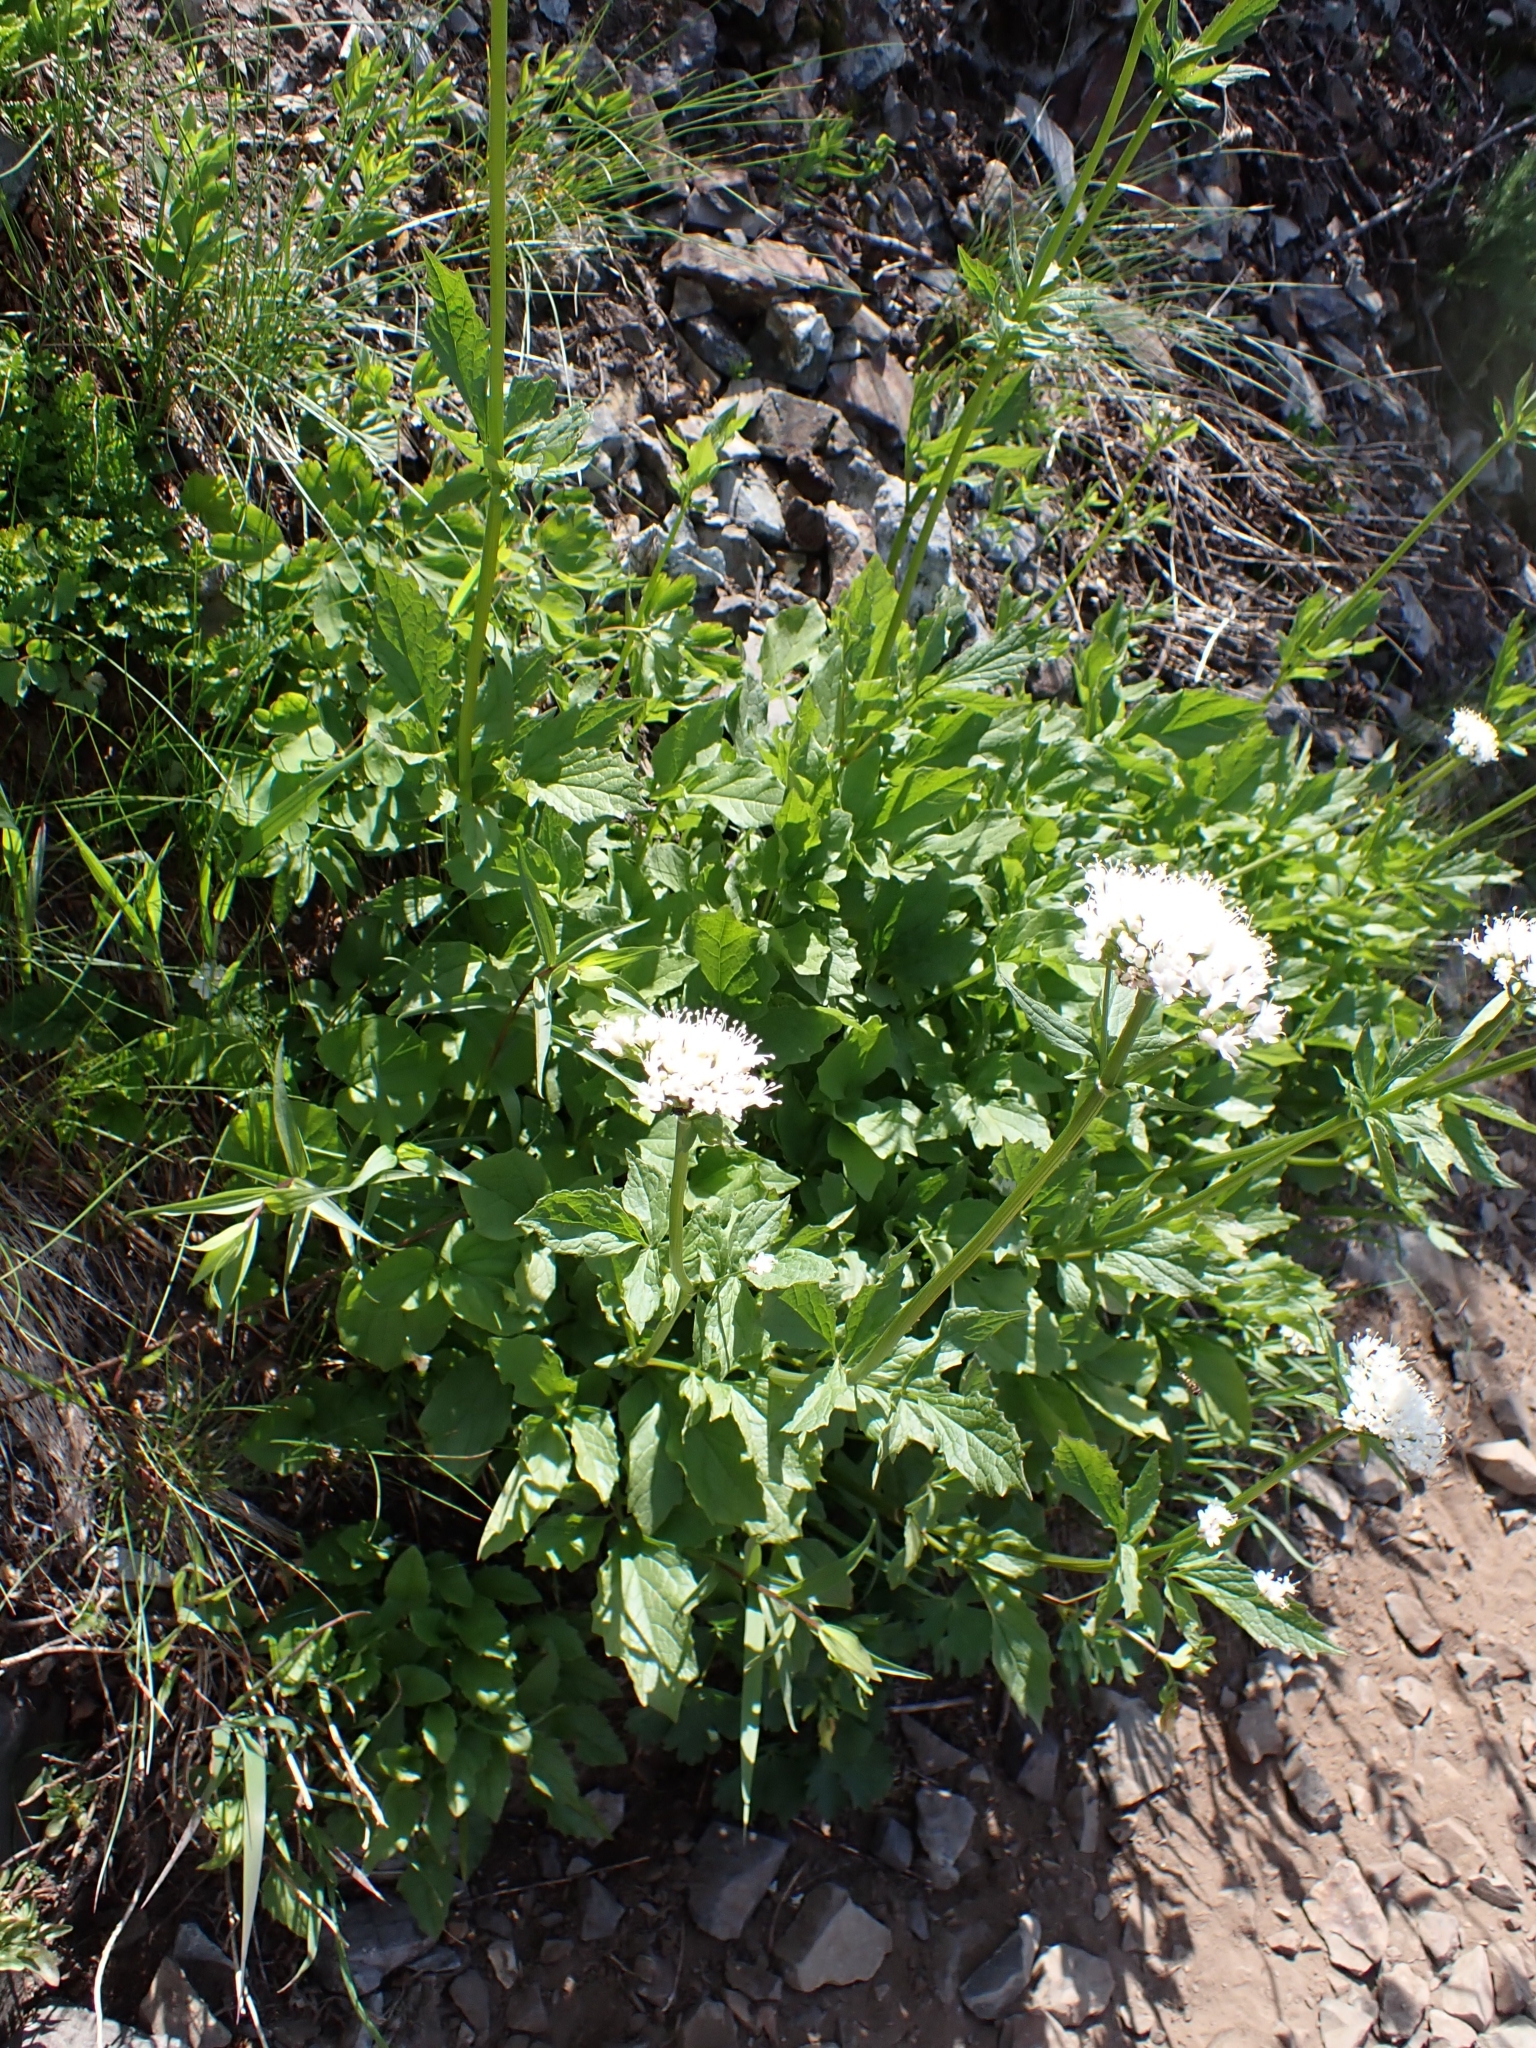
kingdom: Plantae
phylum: Tracheophyta
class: Magnoliopsida
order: Dipsacales
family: Caprifoliaceae
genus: Valeriana
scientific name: Valeriana sitchensis
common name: Pacific valerian
